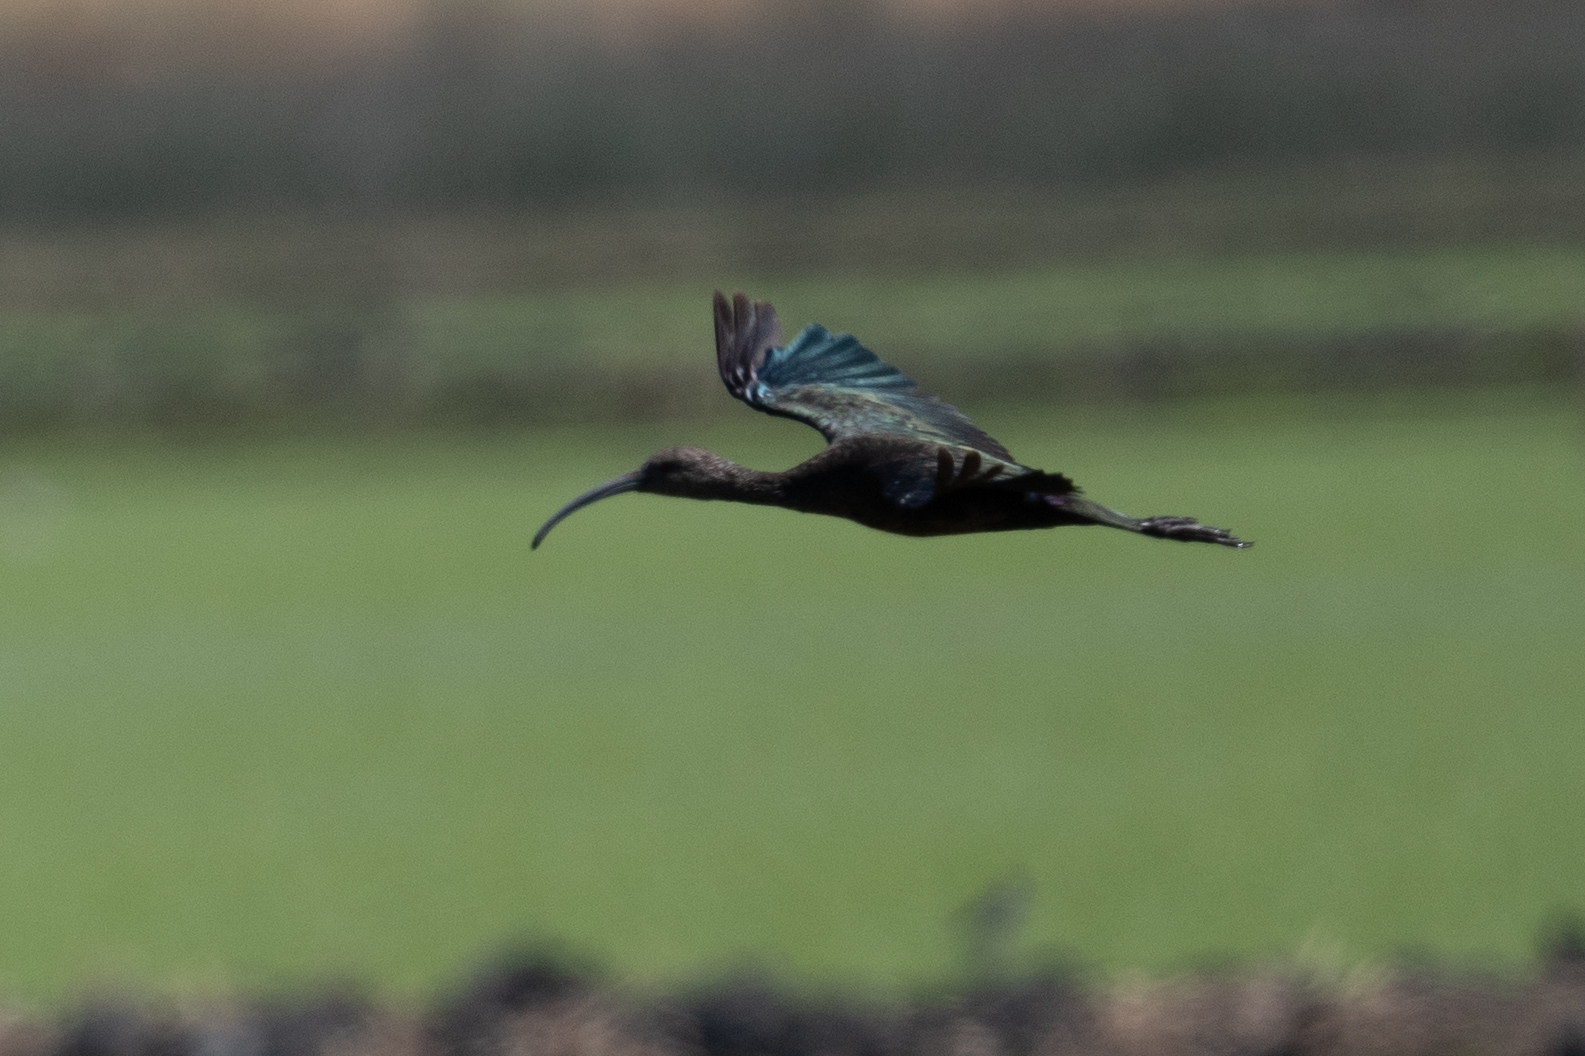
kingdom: Animalia
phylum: Chordata
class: Aves
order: Pelecaniformes
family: Threskiornithidae
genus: Plegadis
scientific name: Plegadis chihi
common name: White-faced ibis
